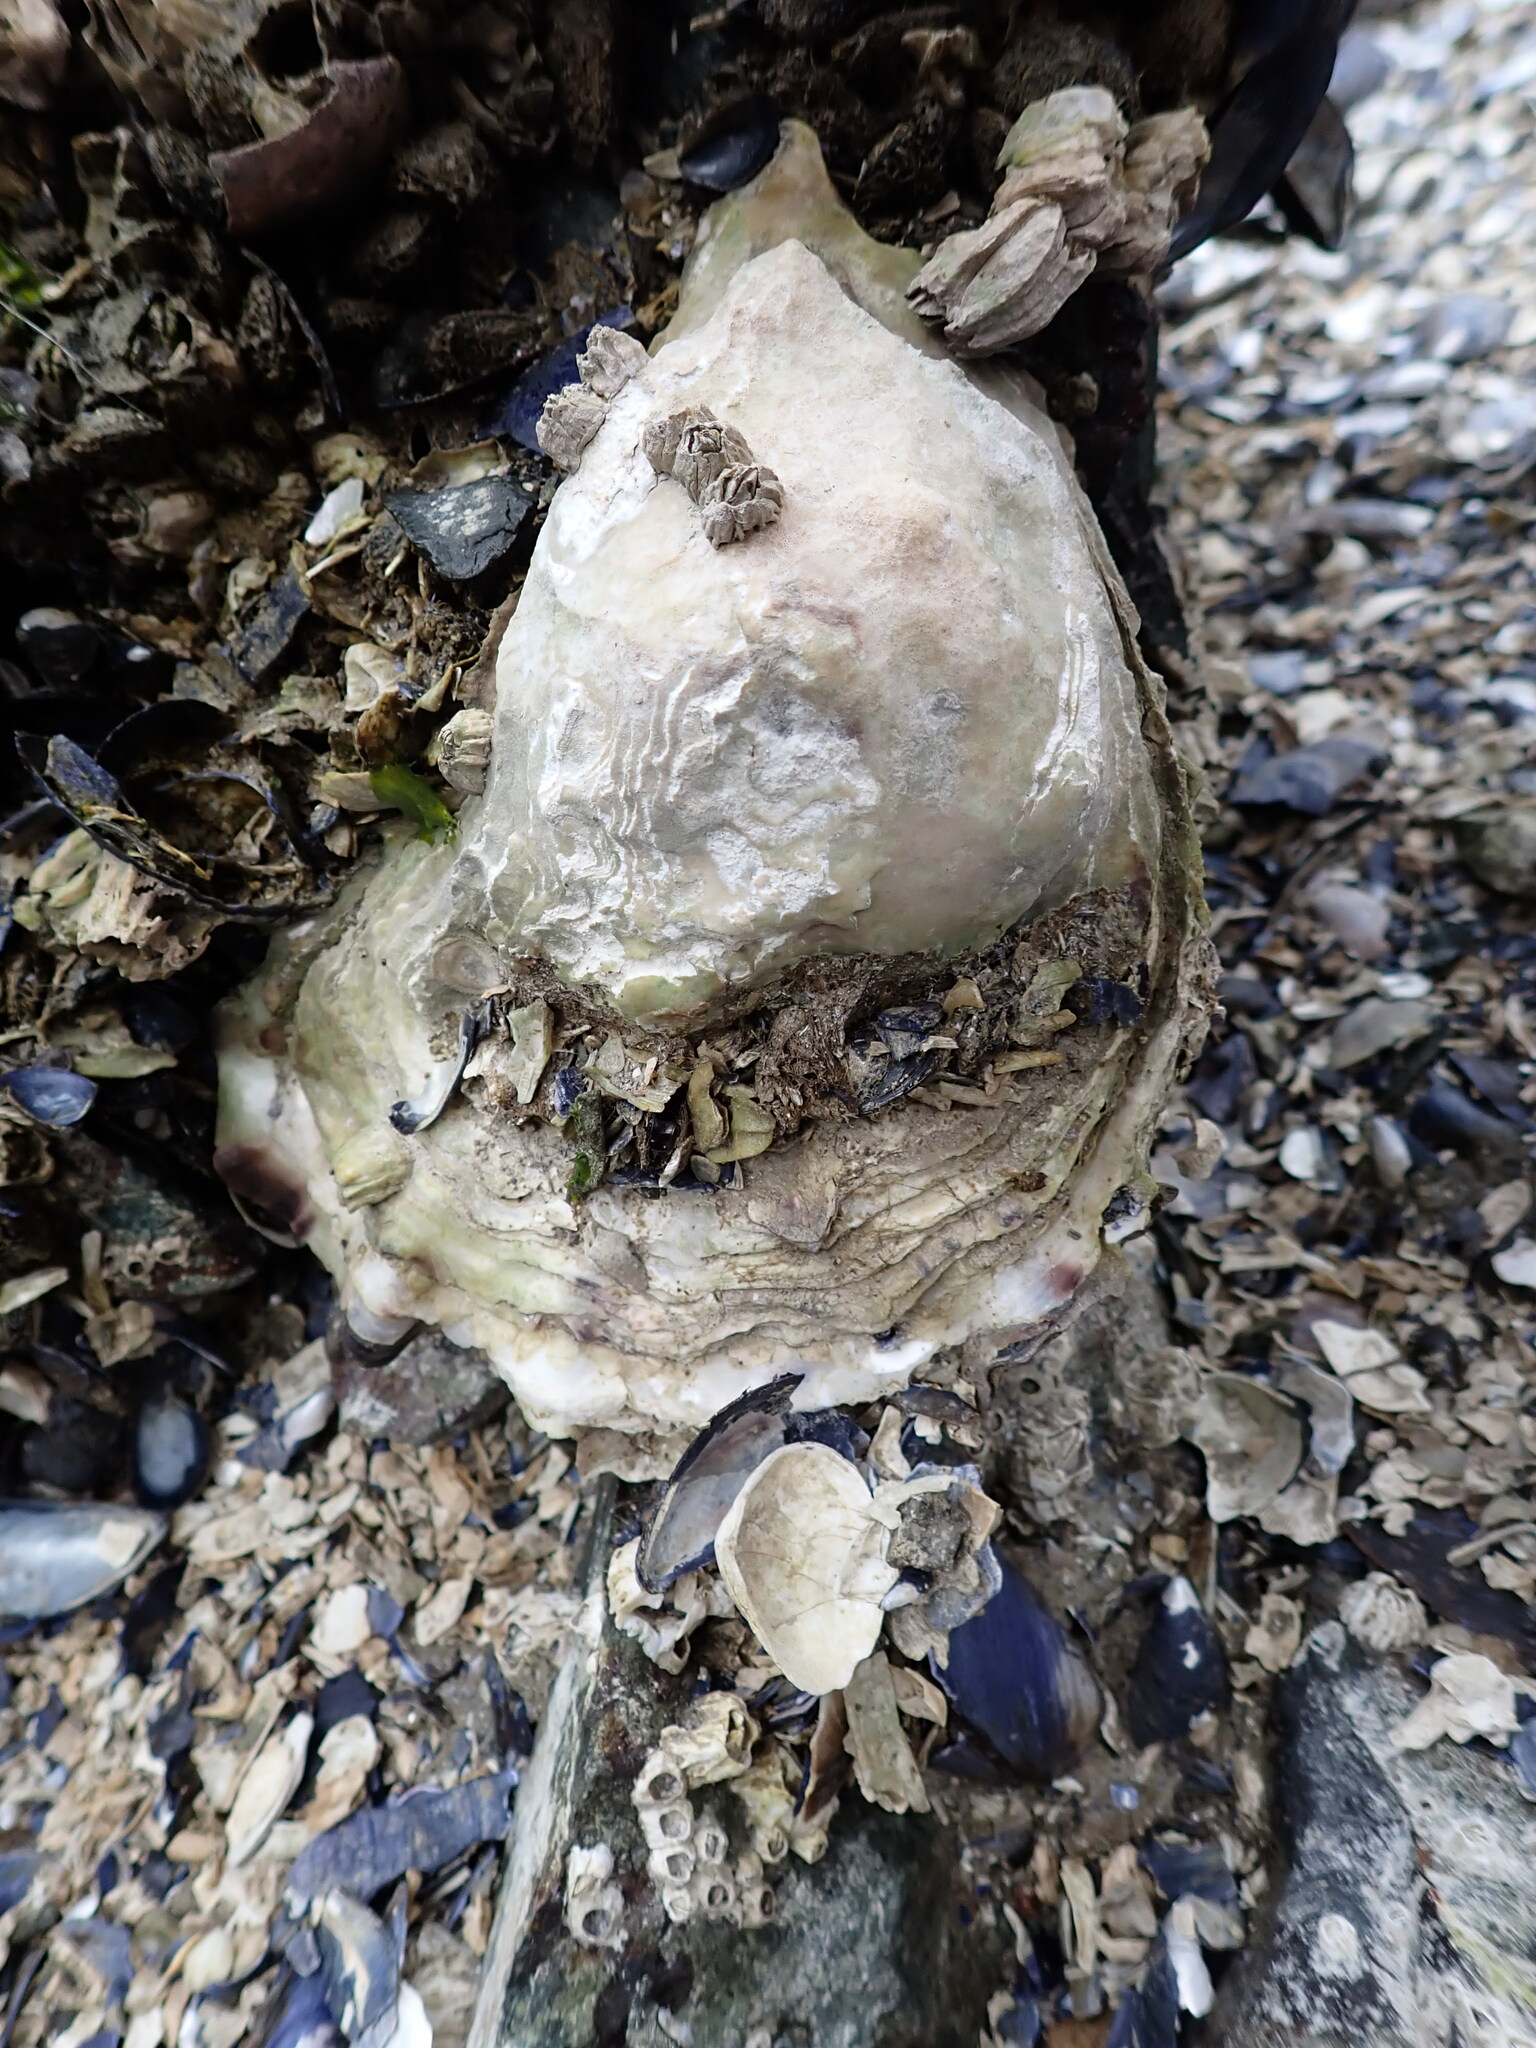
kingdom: Animalia
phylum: Mollusca
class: Bivalvia
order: Ostreida
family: Ostreidae
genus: Magallana
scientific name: Magallana gigas
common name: Pacific oyster
